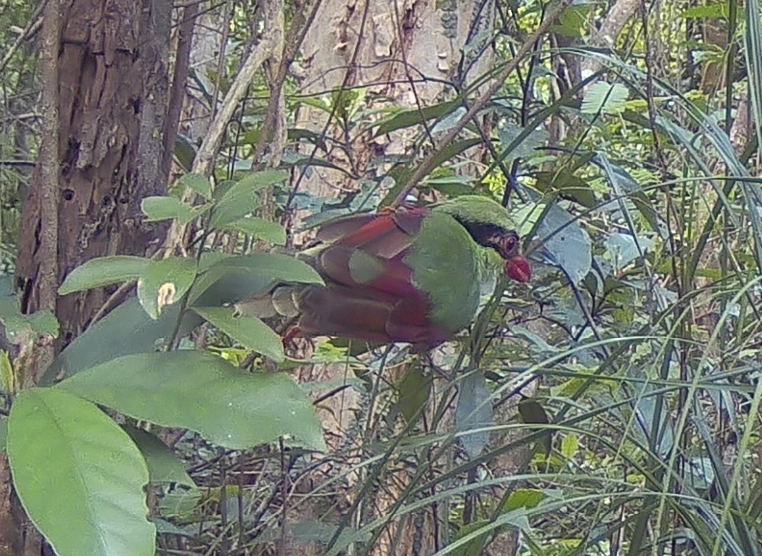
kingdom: Animalia
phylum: Chordata
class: Aves
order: Passeriformes
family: Corvidae
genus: Cissa
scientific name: Cissa hypoleuca
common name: Indochinese green magpie
